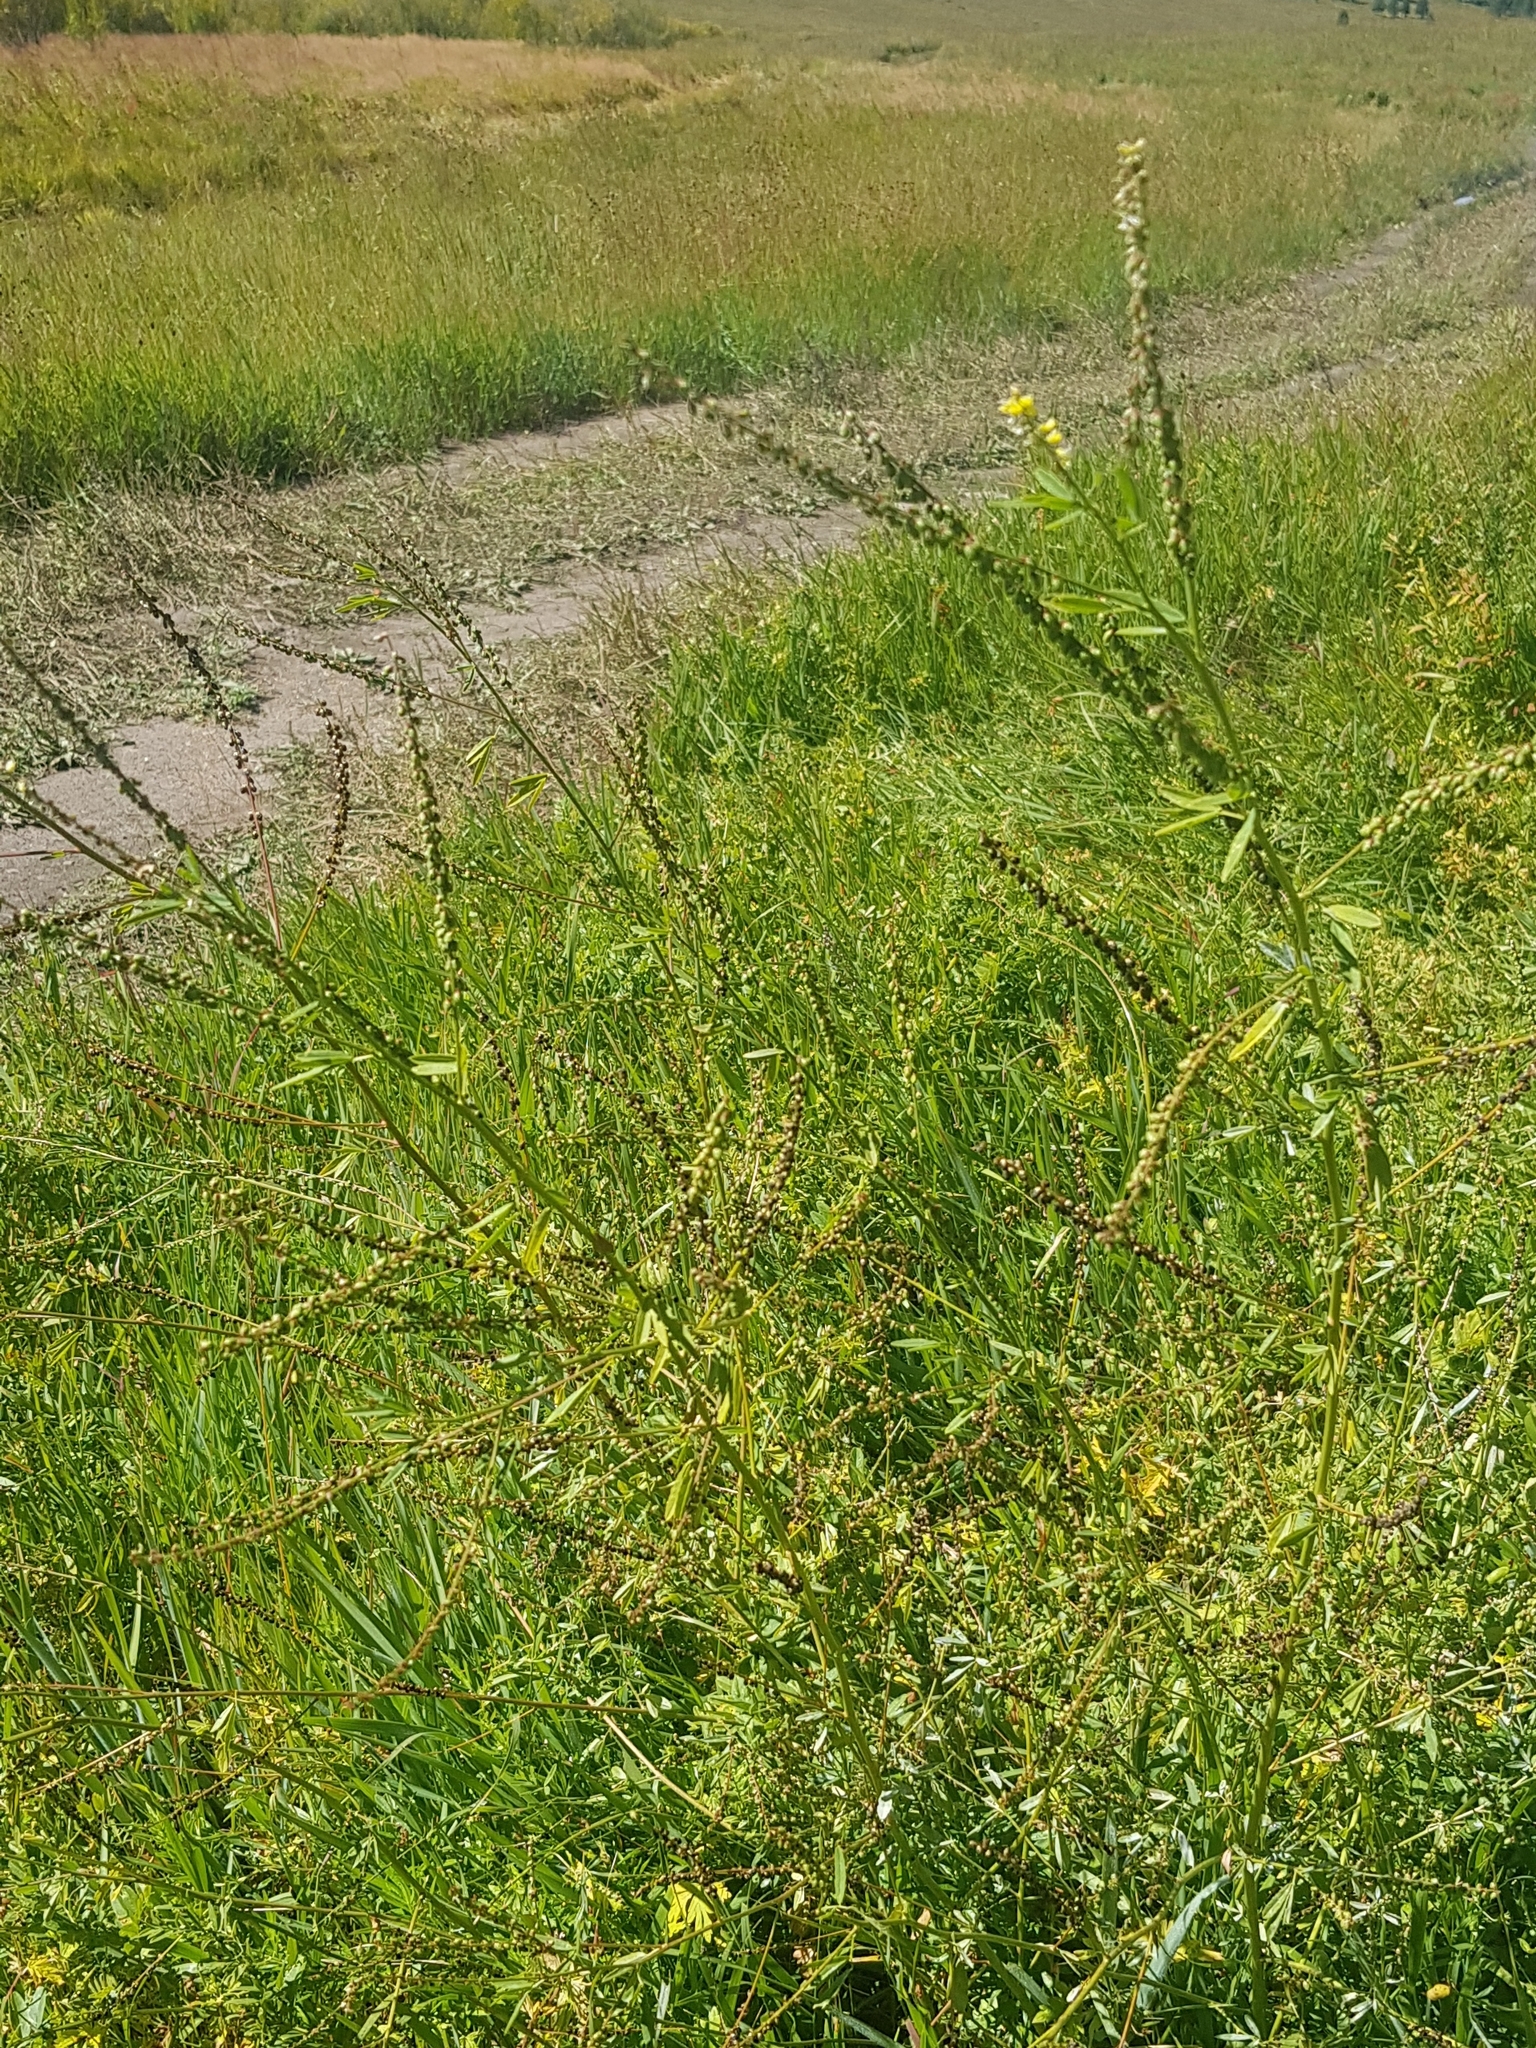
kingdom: Plantae
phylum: Tracheophyta
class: Magnoliopsida
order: Fabales
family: Fabaceae
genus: Melilotus
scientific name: Melilotus suaveolens
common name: Daghestan sweet-clover
